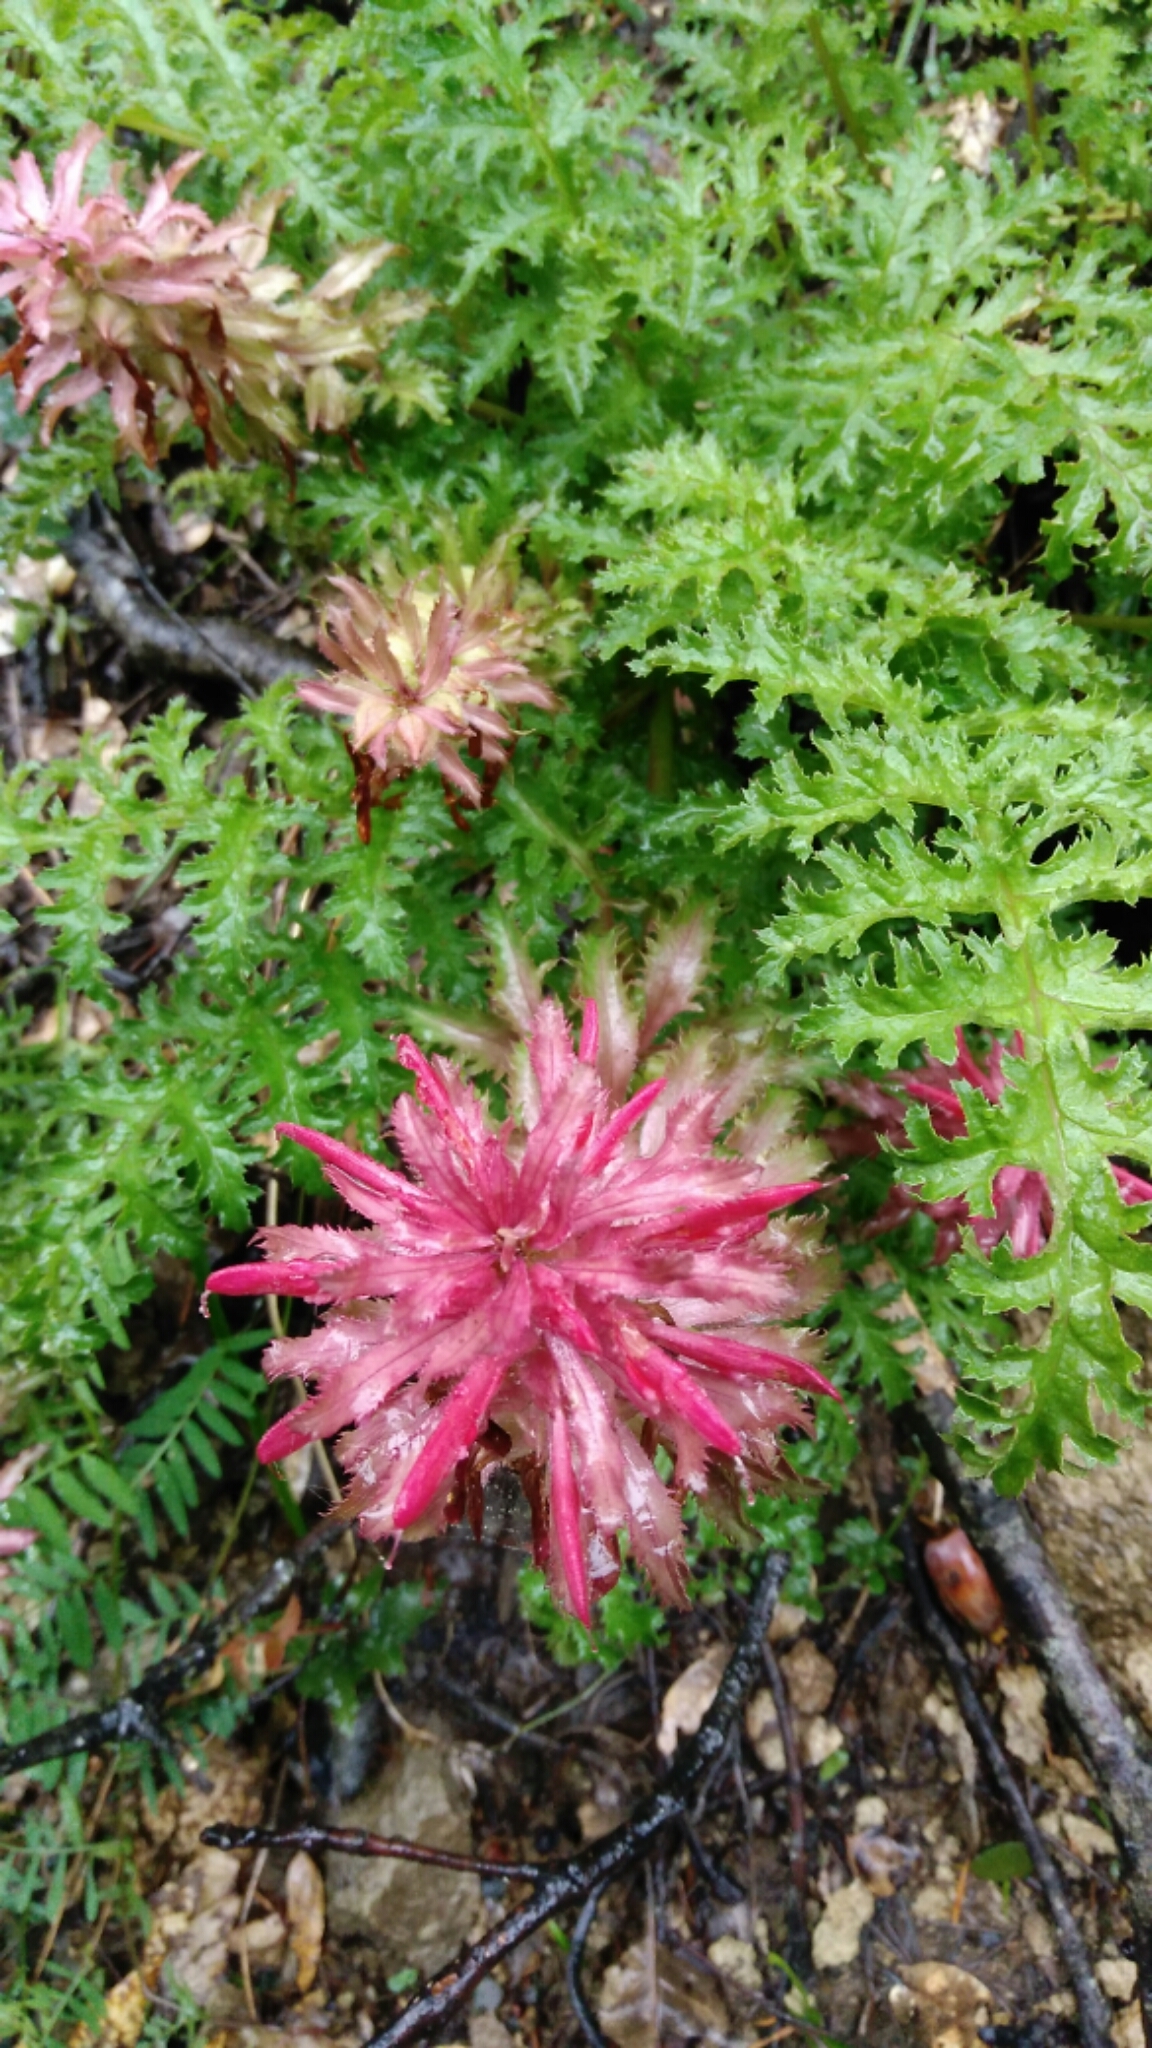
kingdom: Plantae
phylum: Tracheophyta
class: Magnoliopsida
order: Lamiales
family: Orobanchaceae
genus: Pedicularis
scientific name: Pedicularis densiflora
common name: Indian warrior
